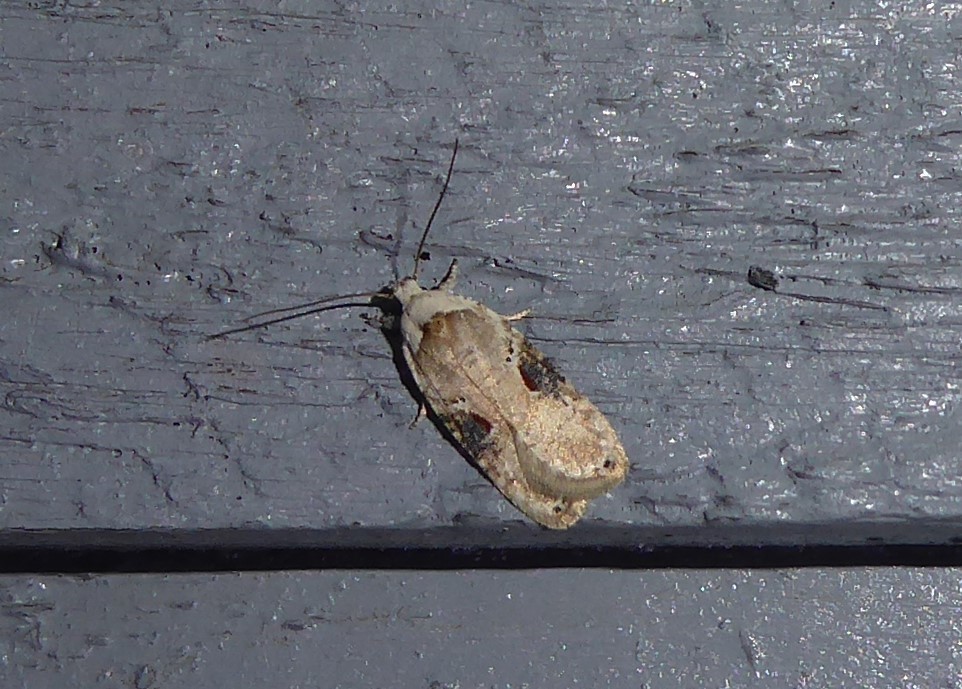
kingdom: Animalia
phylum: Arthropoda
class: Insecta
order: Lepidoptera
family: Depressariidae
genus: Agonopterix
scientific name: Agonopterix alstroemeriana
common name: Moth
